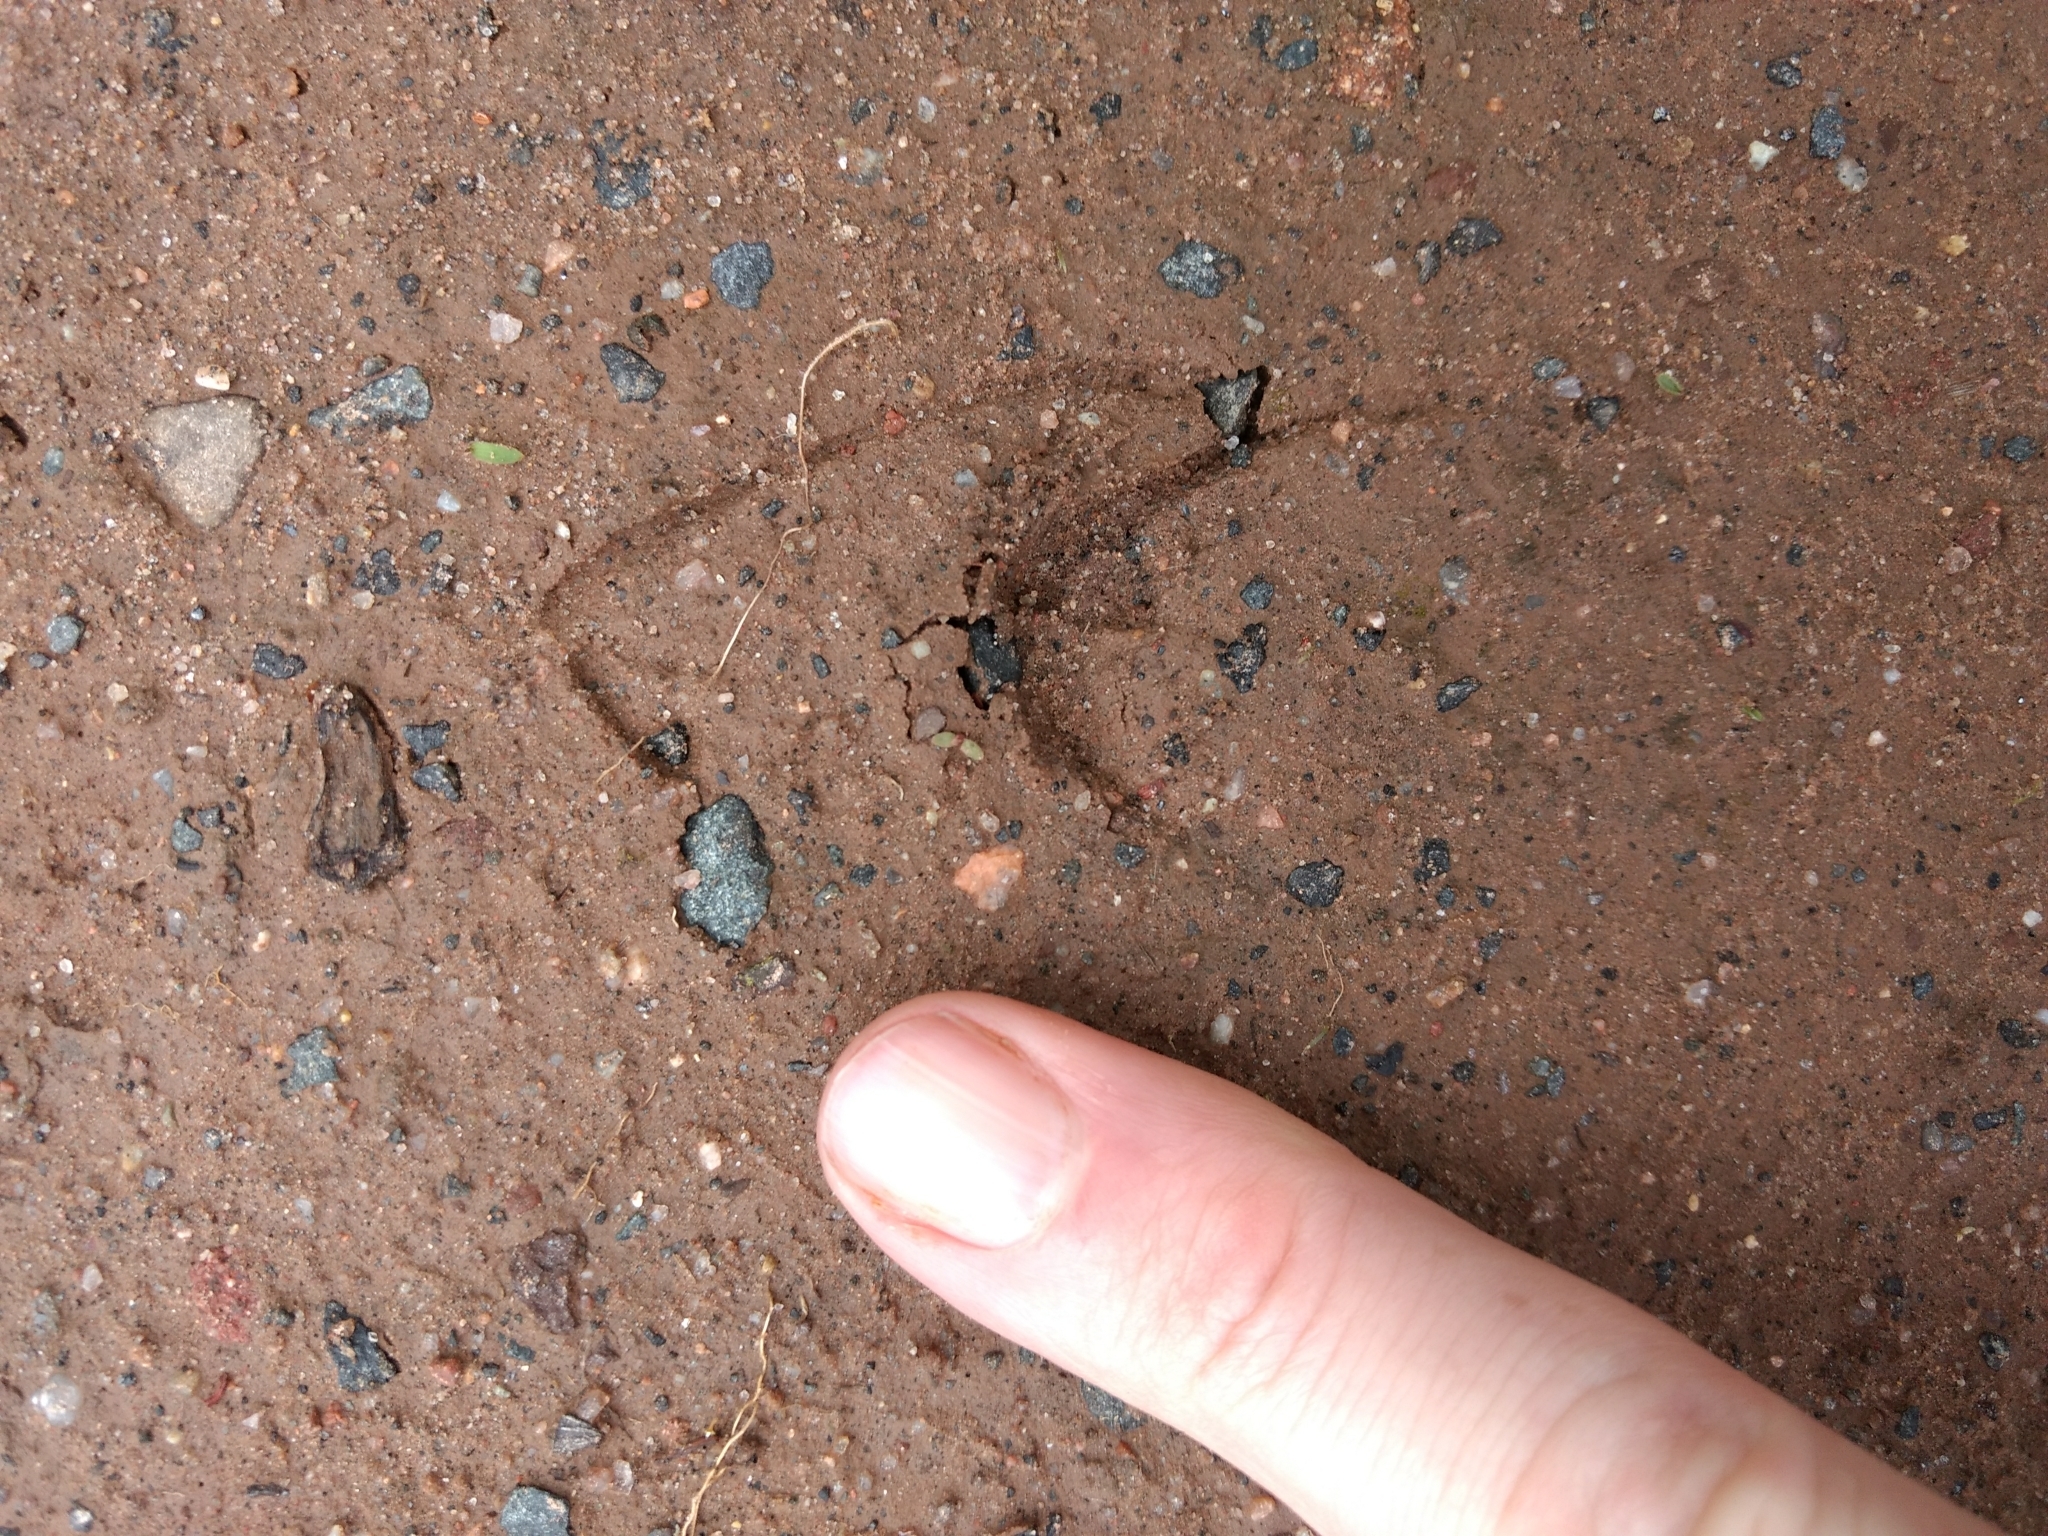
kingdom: Animalia
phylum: Chordata
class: Mammalia
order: Artiodactyla
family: Cervidae
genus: Odocoileus
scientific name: Odocoileus virginianus
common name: White-tailed deer
